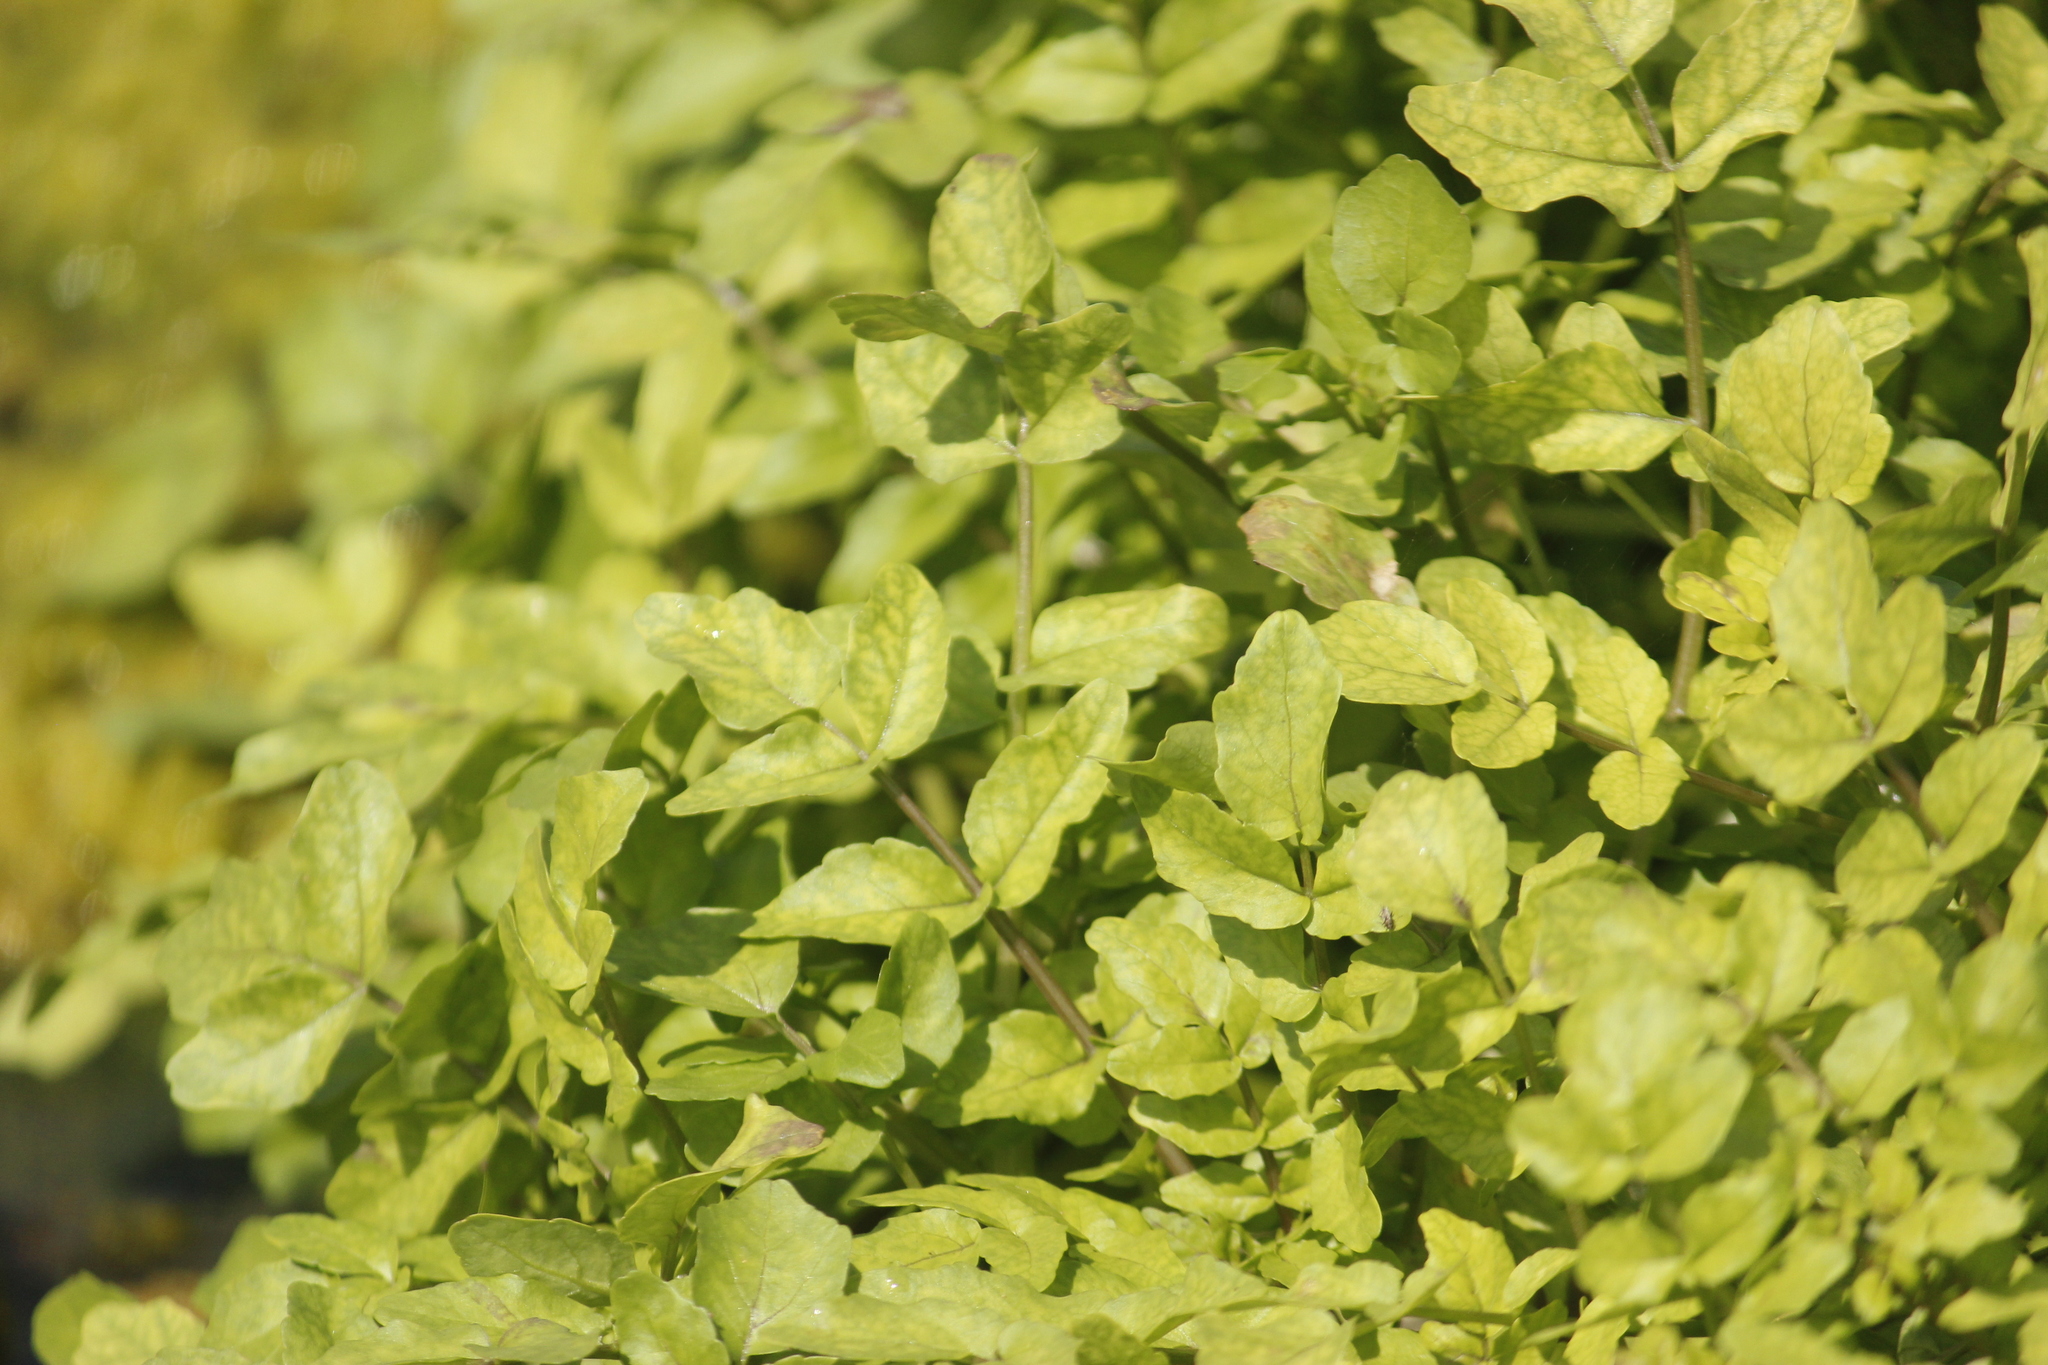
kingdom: Plantae
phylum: Tracheophyta
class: Magnoliopsida
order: Brassicales
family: Brassicaceae
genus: Nasturtium
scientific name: Nasturtium officinale
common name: Watercress
